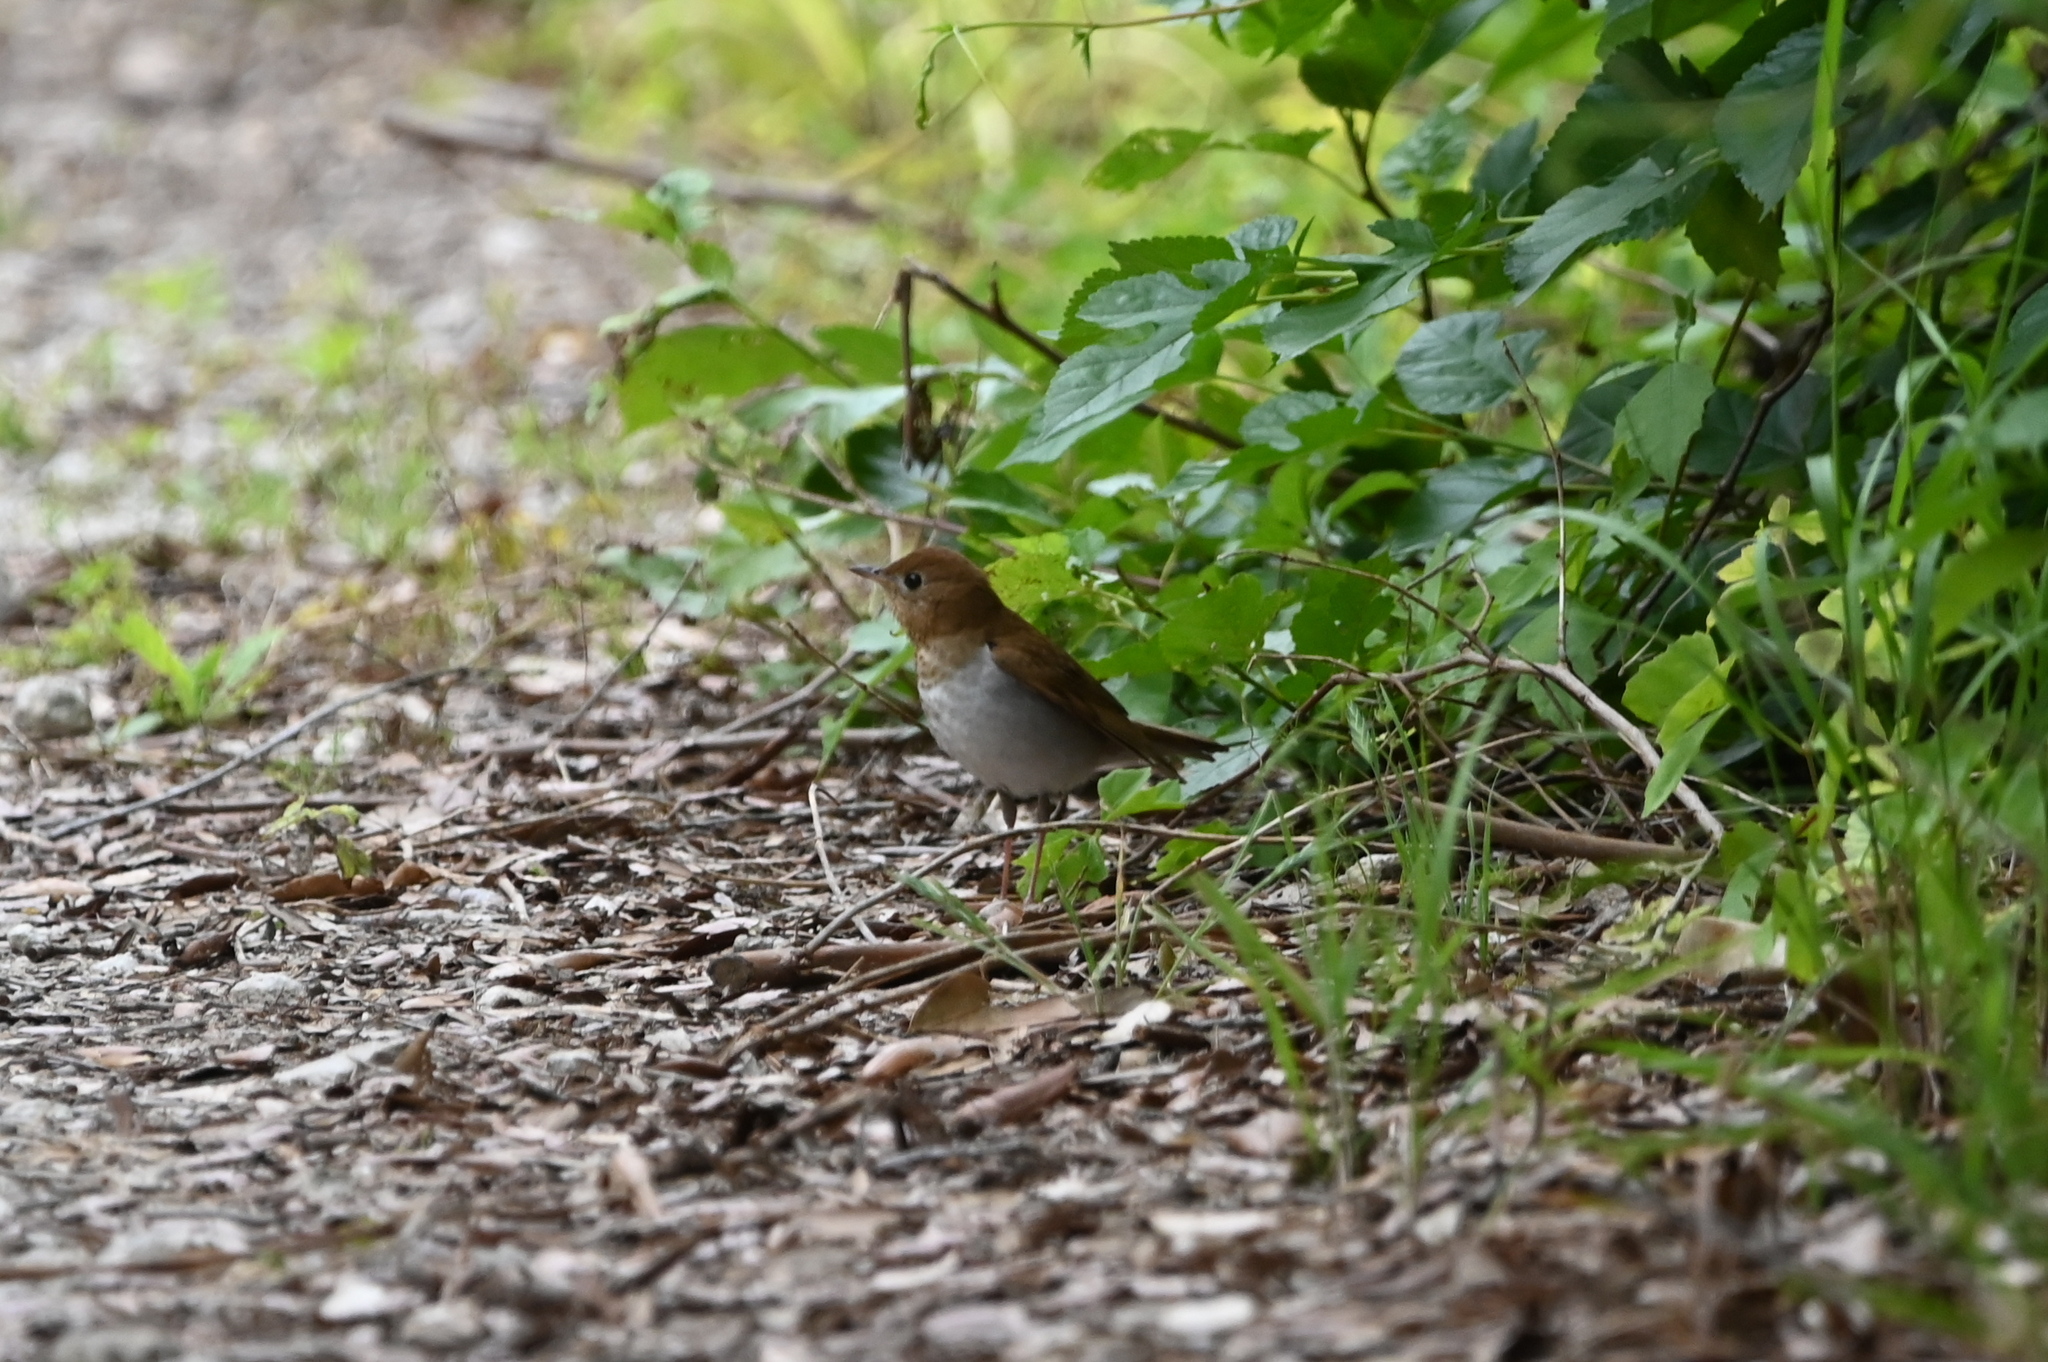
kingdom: Animalia
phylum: Chordata
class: Aves
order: Passeriformes
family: Turdidae
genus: Catharus
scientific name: Catharus fuscescens
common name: Veery
